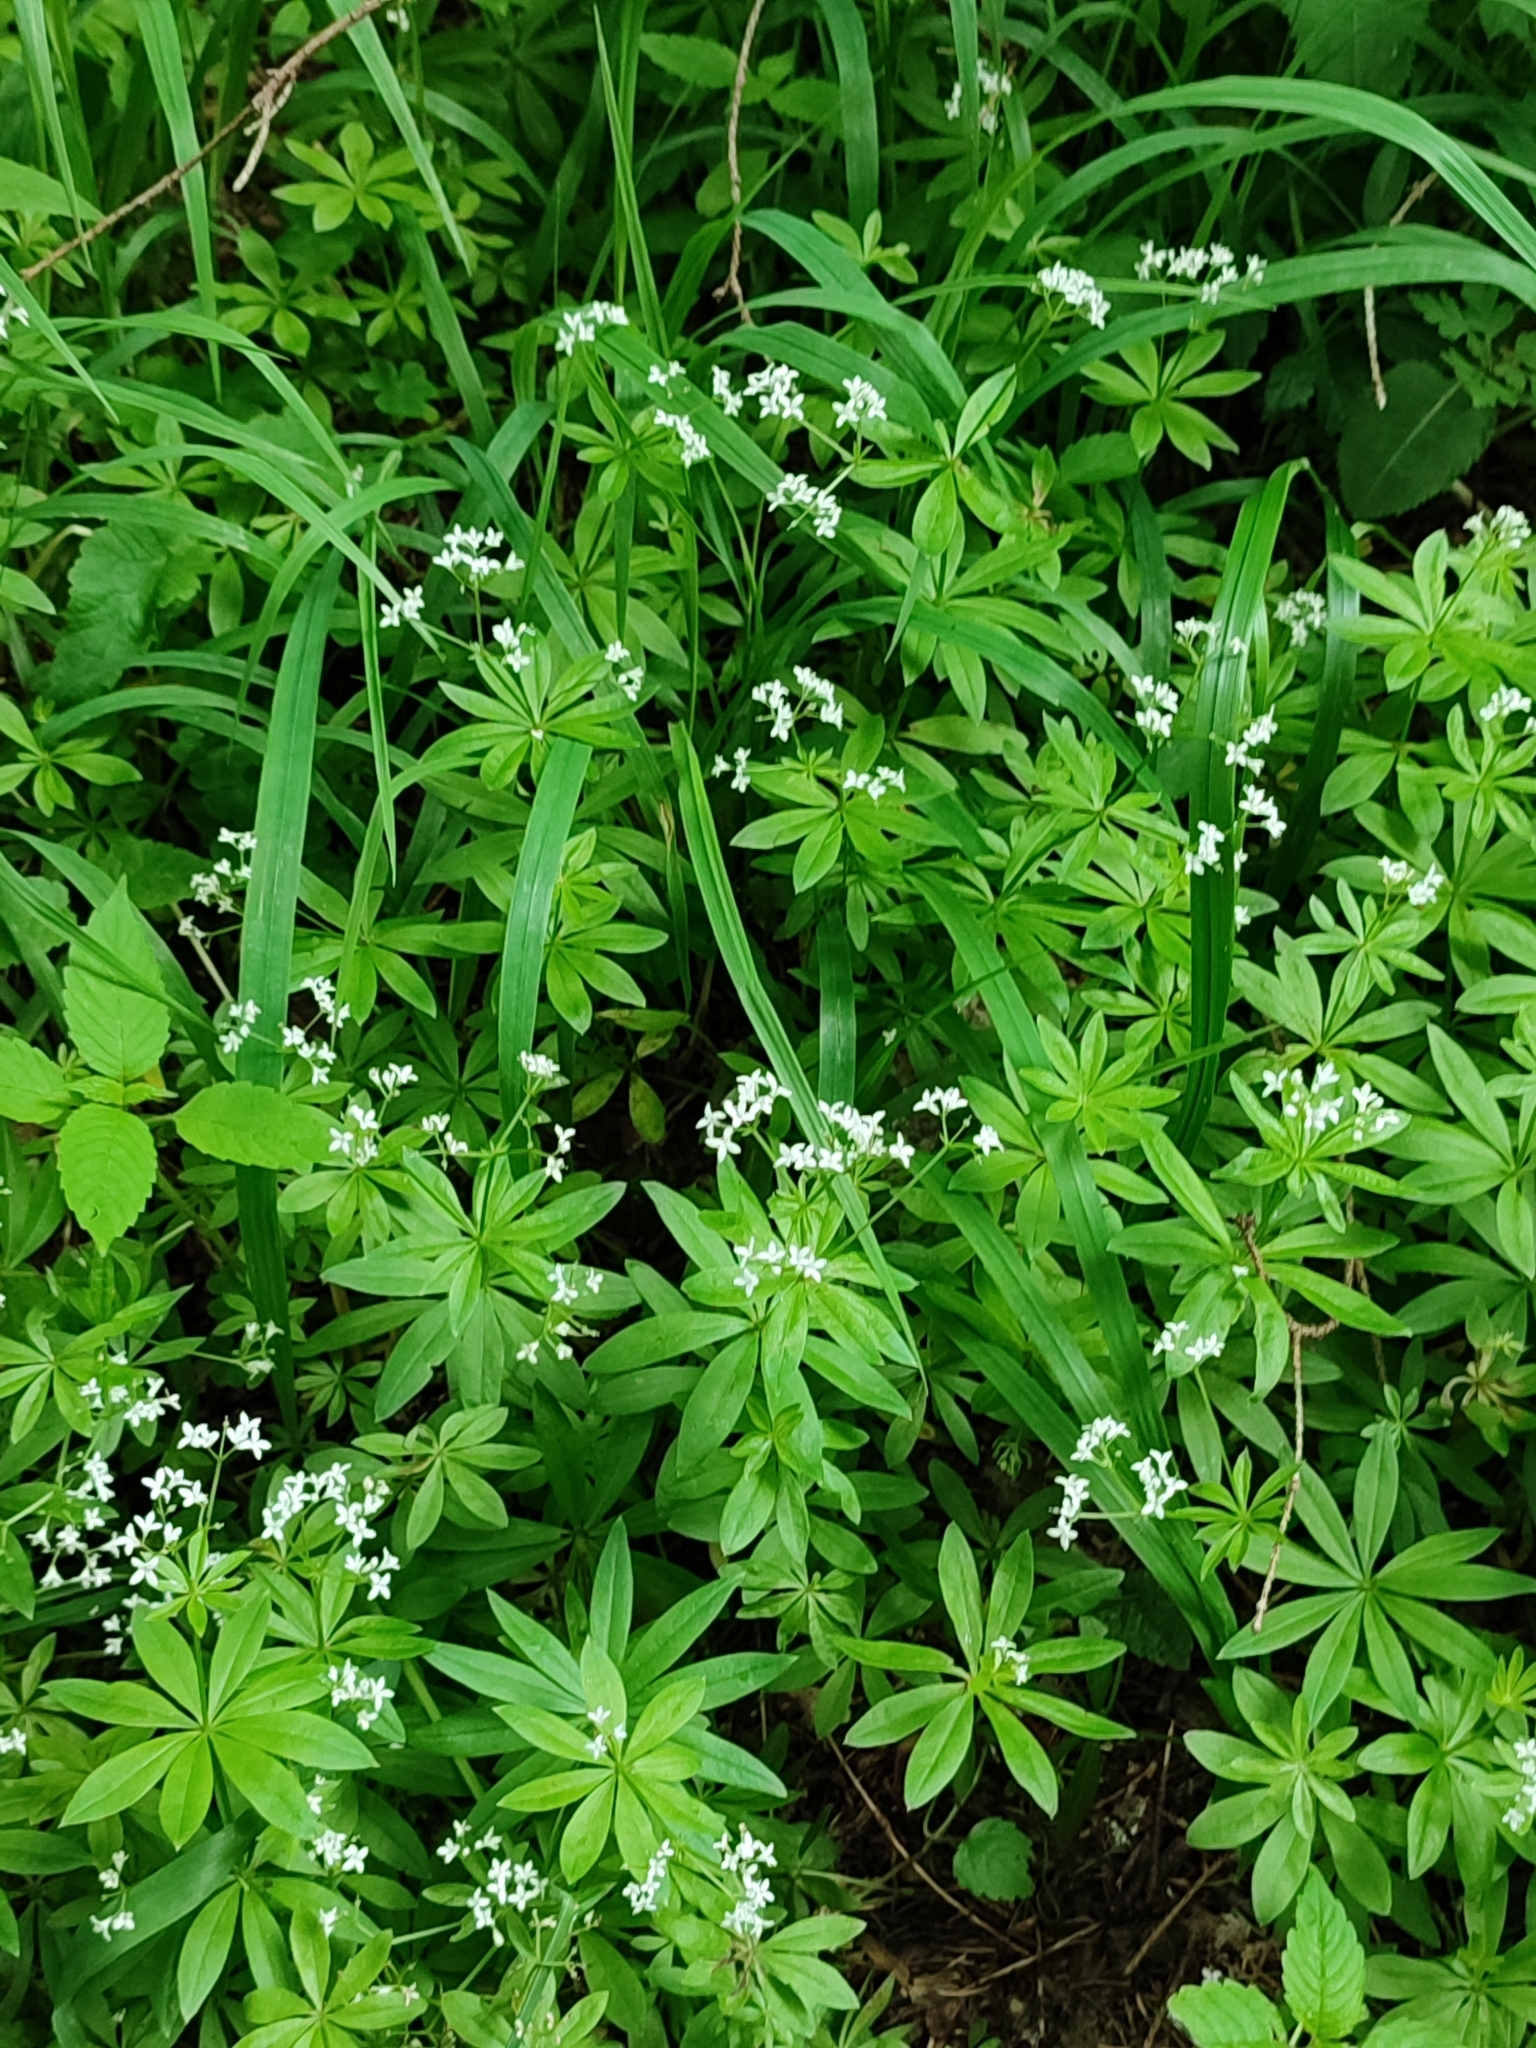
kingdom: Plantae
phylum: Tracheophyta
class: Magnoliopsida
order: Gentianales
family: Rubiaceae
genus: Galium
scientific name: Galium odoratum
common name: Sweet woodruff
